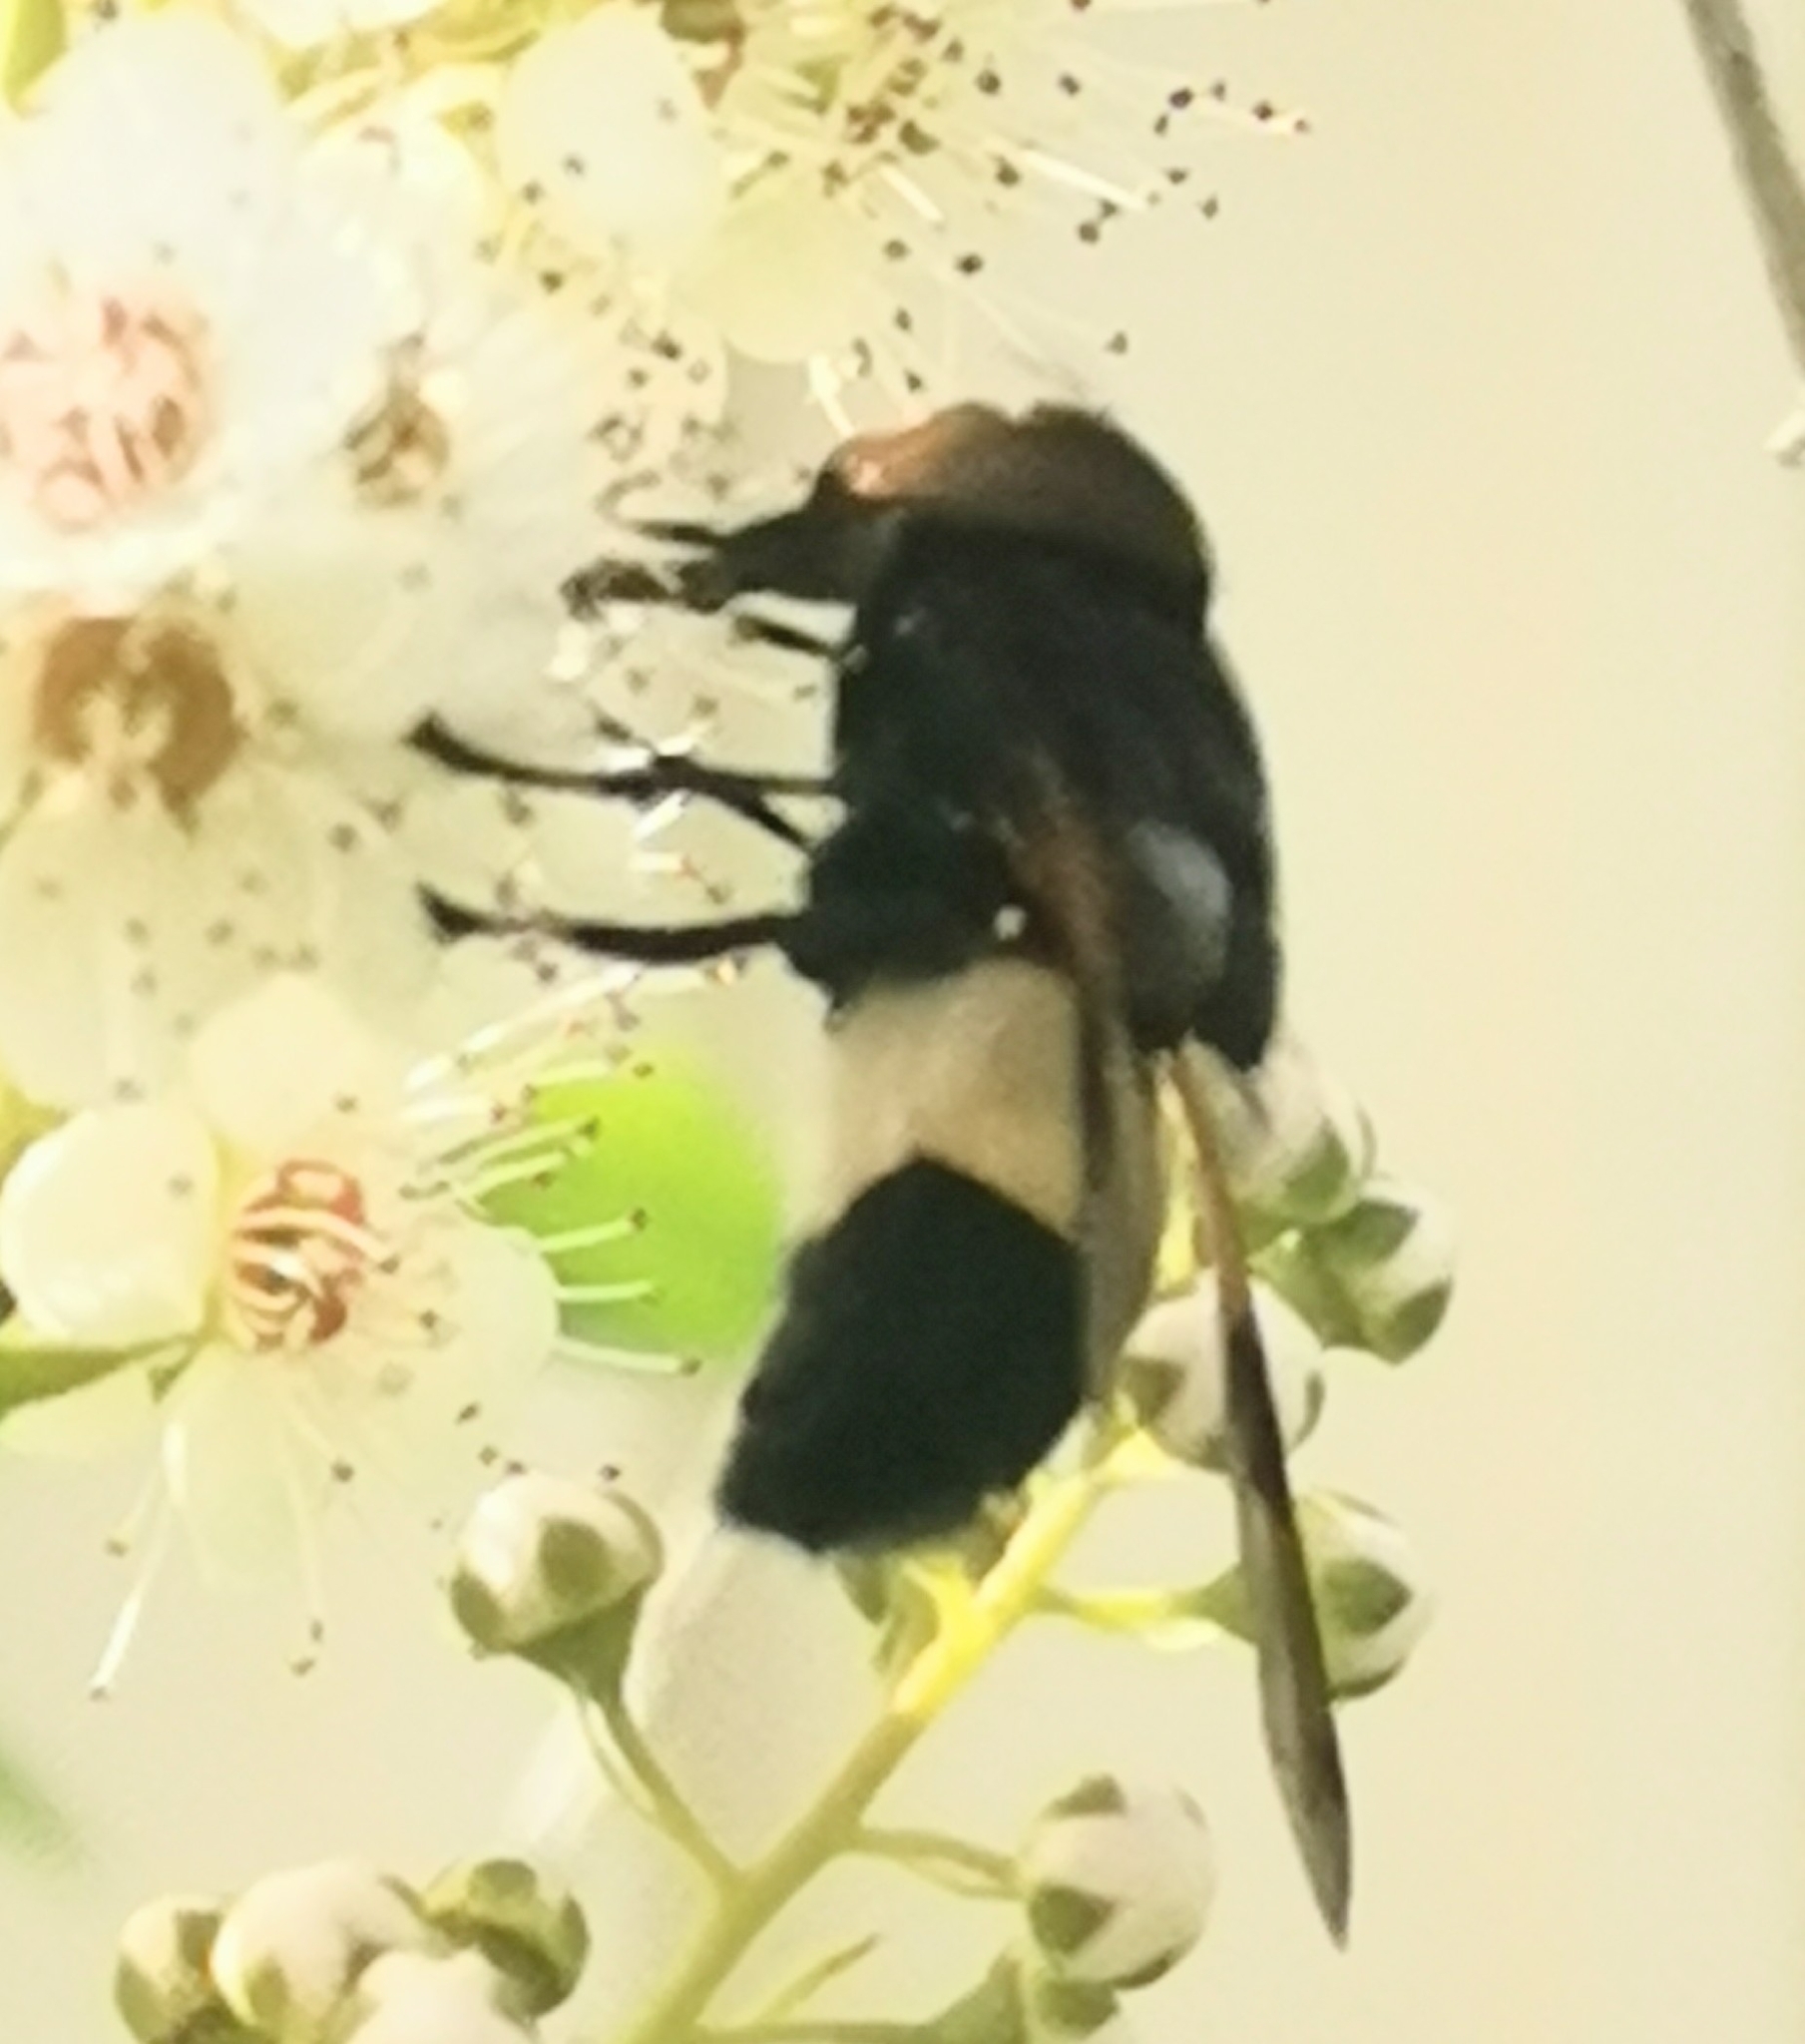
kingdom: Animalia
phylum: Arthropoda
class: Insecta
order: Diptera
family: Syrphidae
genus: Volucella
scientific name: Volucella pellucens
